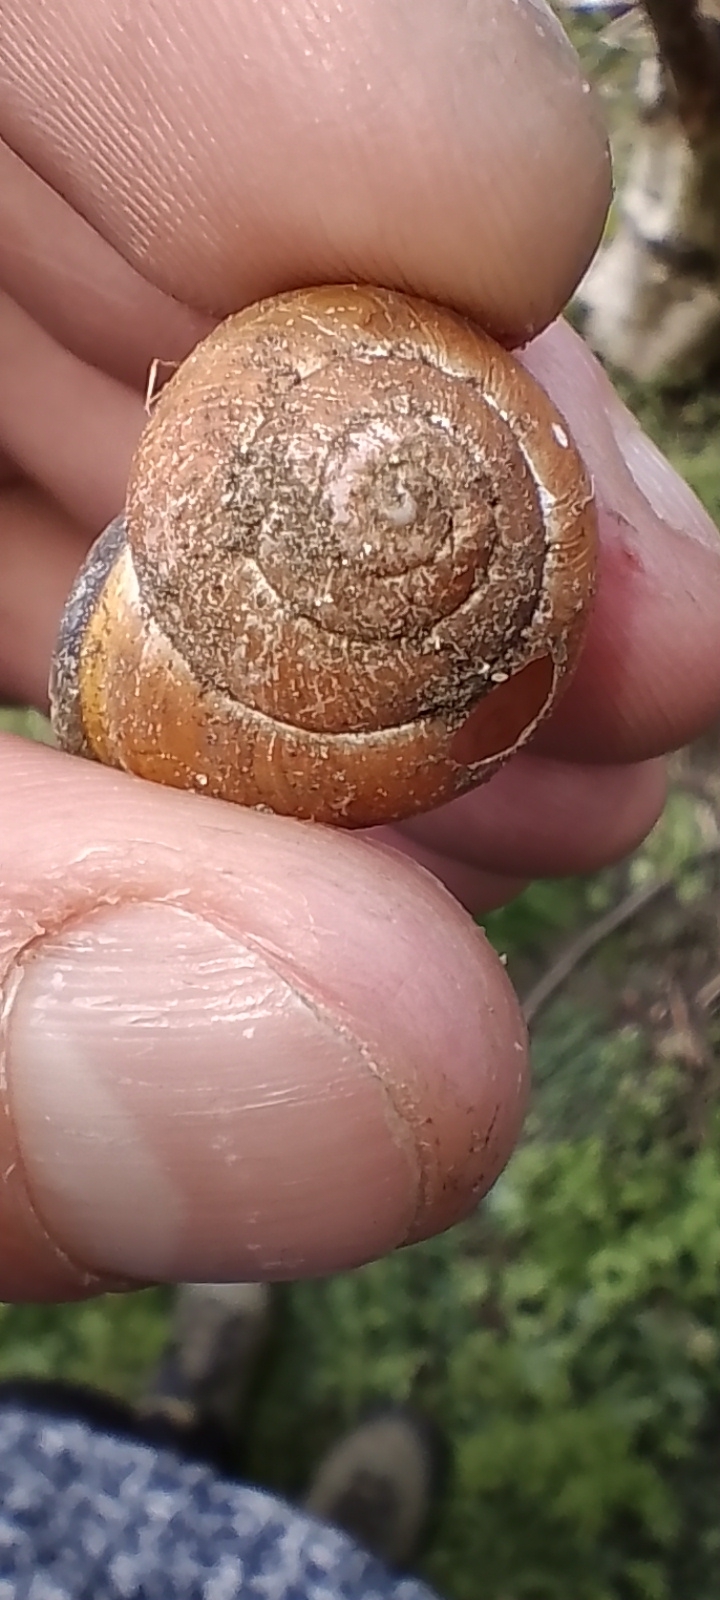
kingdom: Animalia
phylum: Mollusca
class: Gastropoda
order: Stylommatophora
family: Helicidae
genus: Cepaea
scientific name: Cepaea nemoralis
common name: Grovesnail
